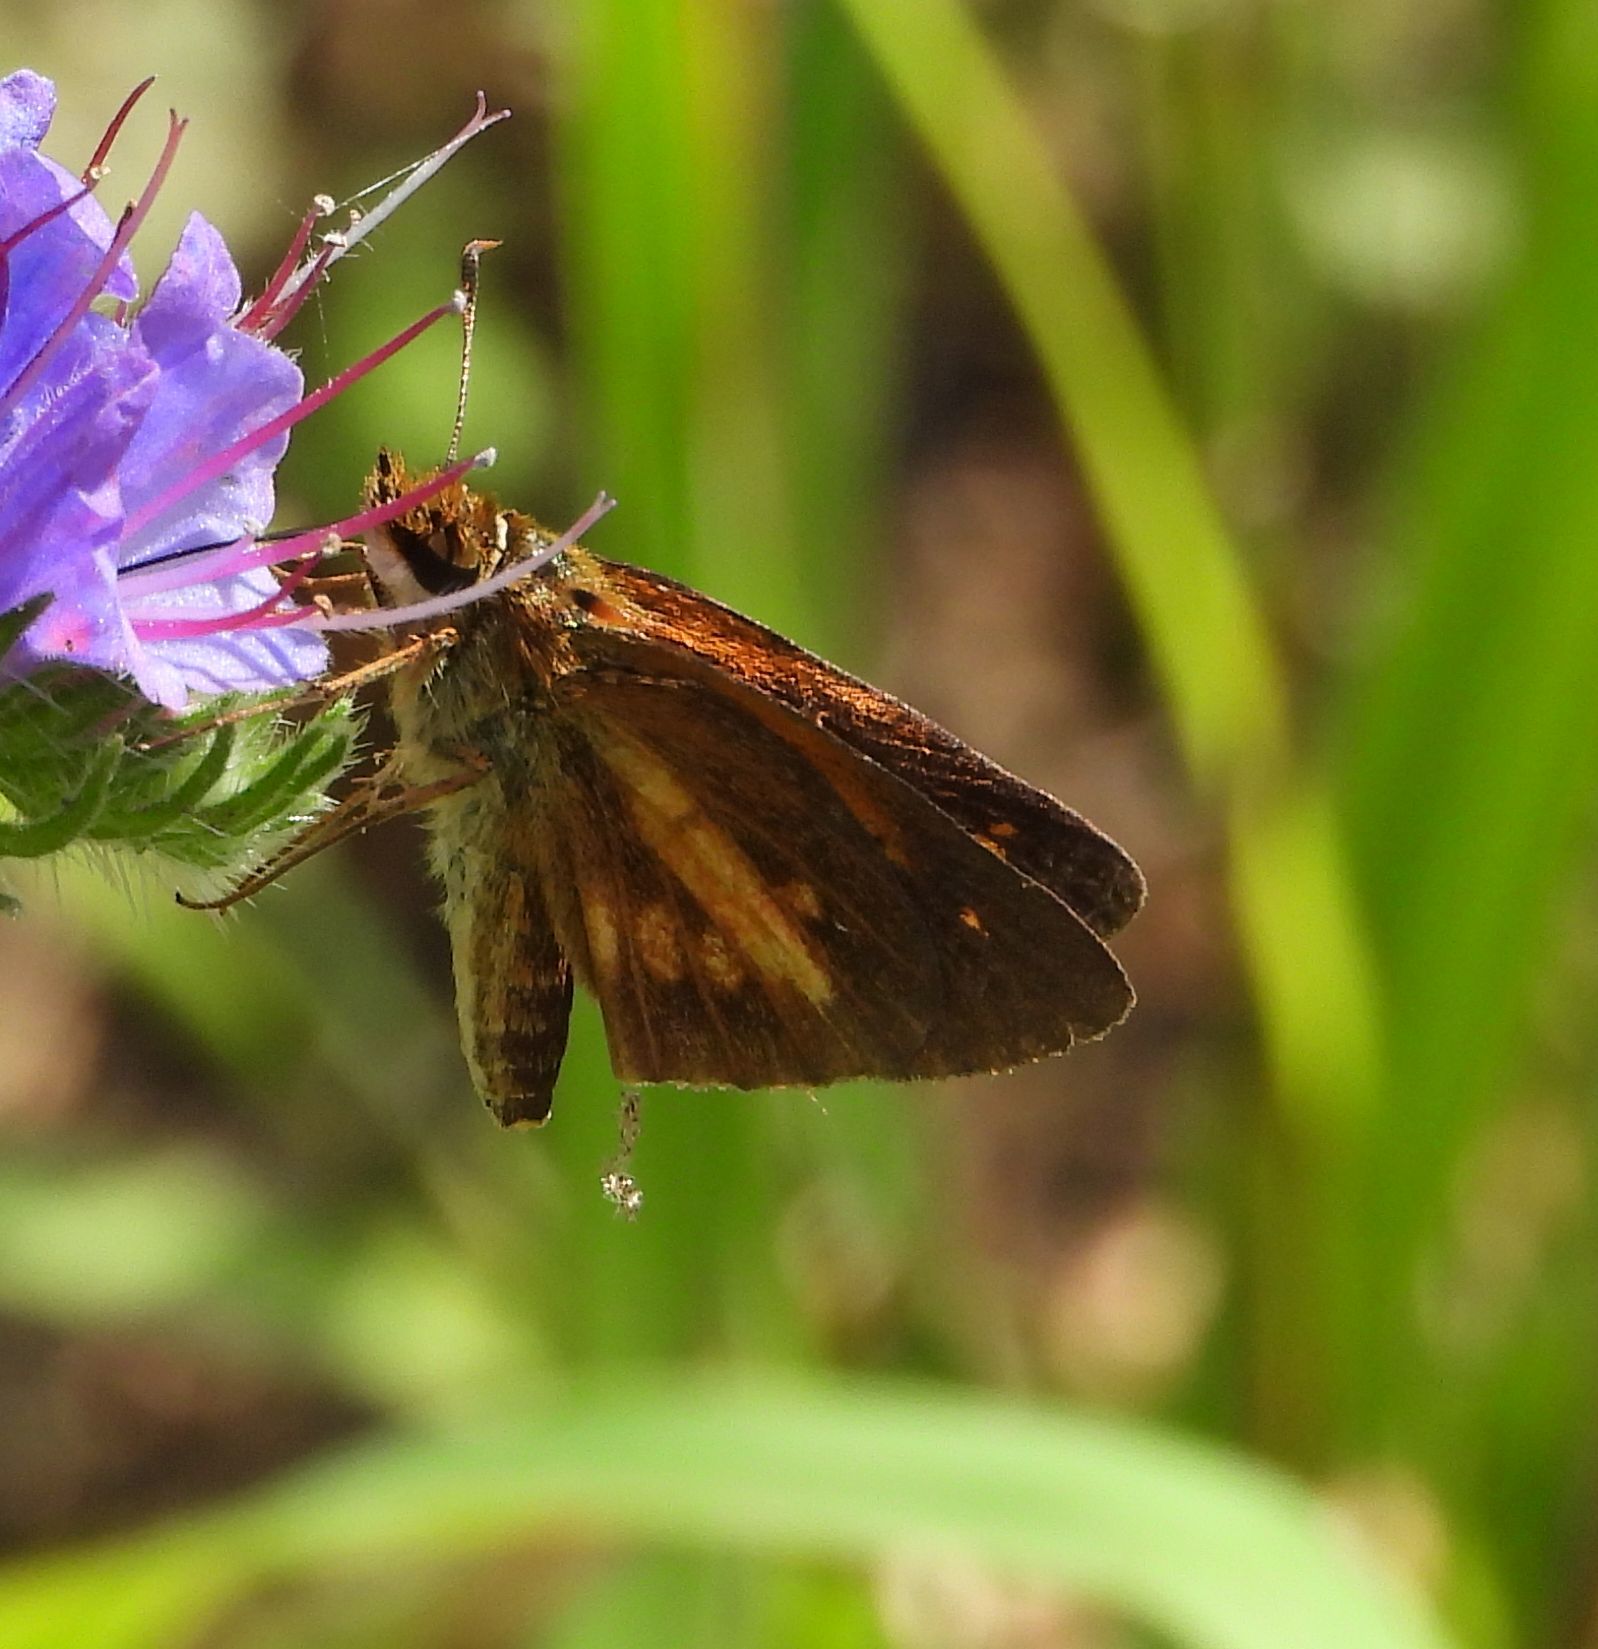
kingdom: Animalia
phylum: Arthropoda
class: Insecta
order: Lepidoptera
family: Hesperiidae
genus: Poanes
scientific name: Poanes viator
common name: Broad-winged skipper
